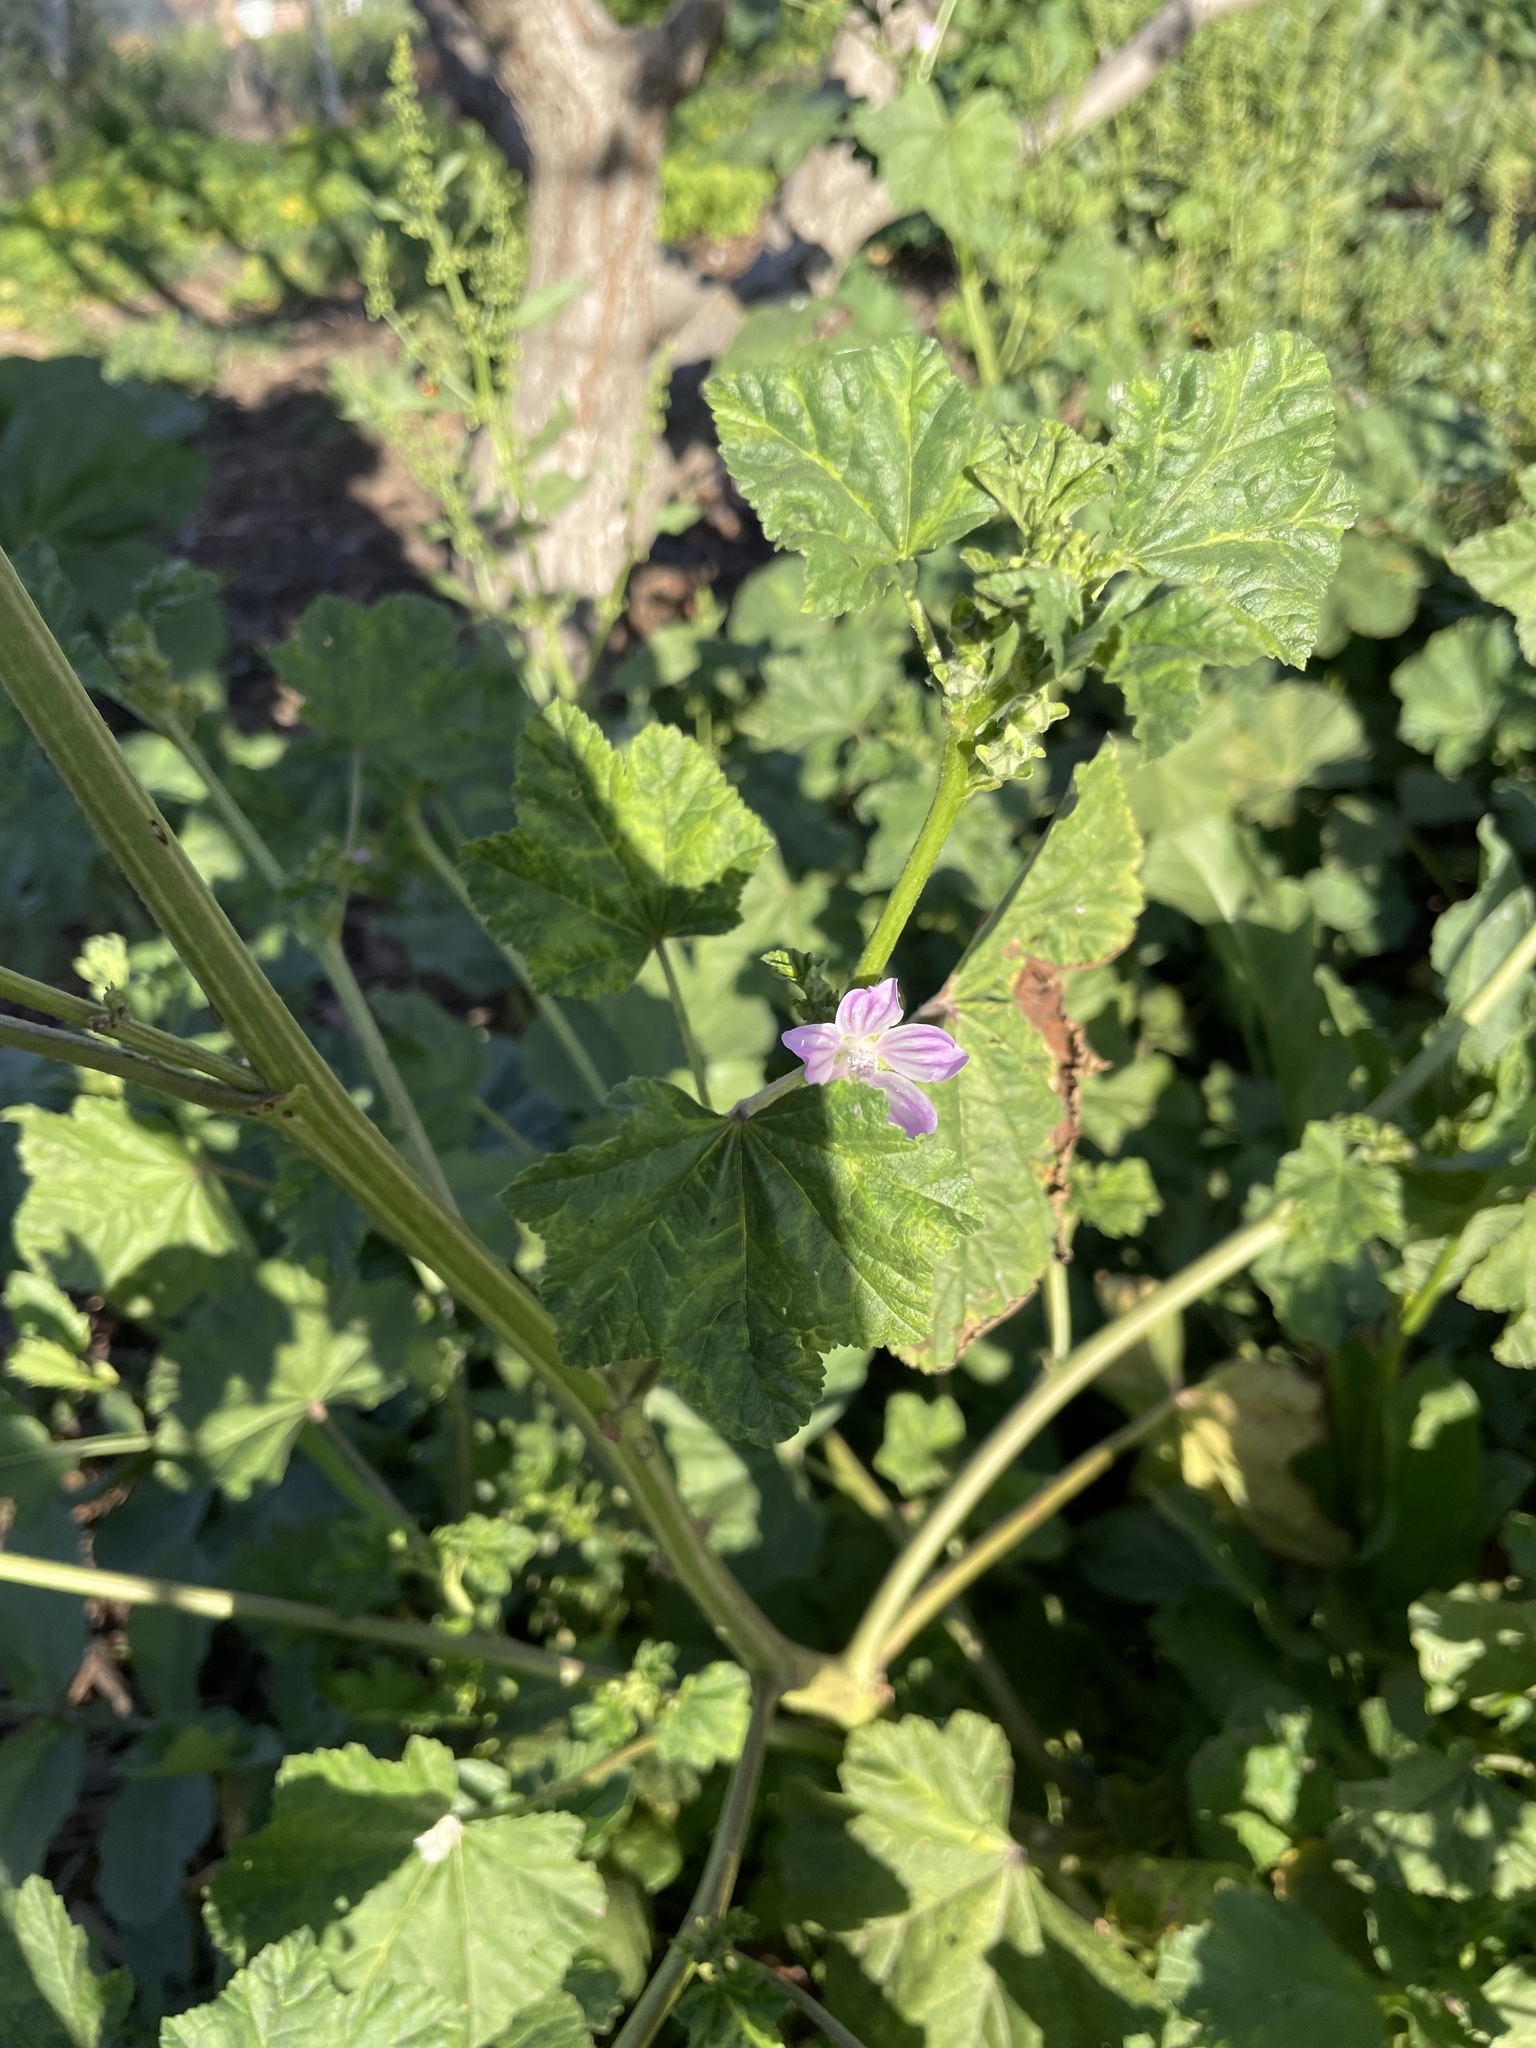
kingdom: Plantae
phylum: Tracheophyta
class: Magnoliopsida
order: Malvales
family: Malvaceae
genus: Malva
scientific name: Malva multiflora
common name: Cheeseweed
